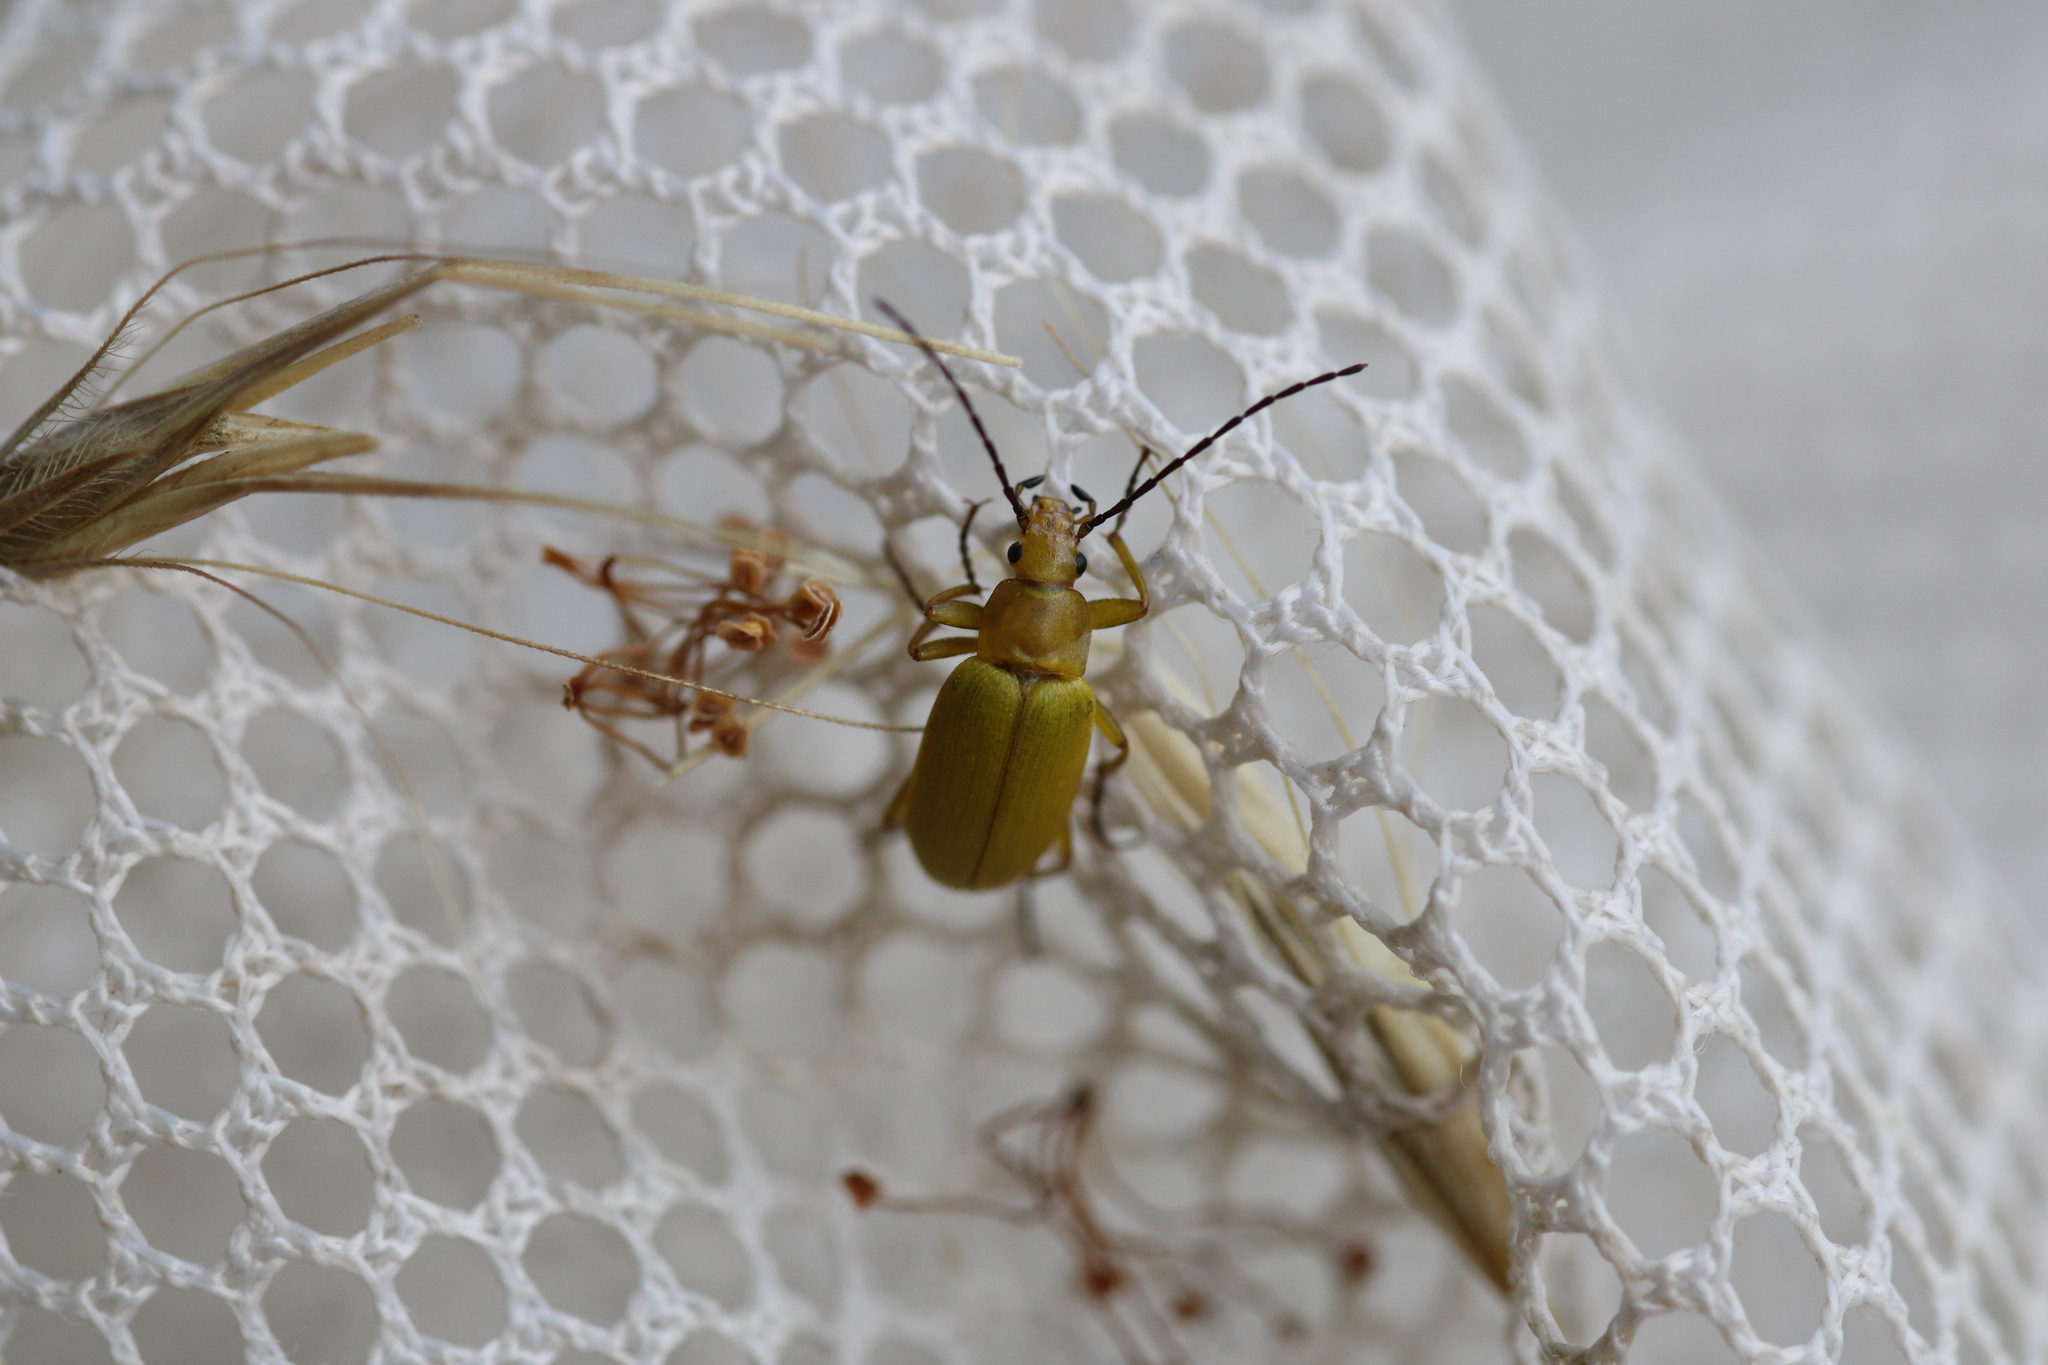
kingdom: Animalia
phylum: Arthropoda
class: Insecta
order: Coleoptera
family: Tenebrionidae
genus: Cteniopus
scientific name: Cteniopus sulphureus
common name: Sulphur beetle
